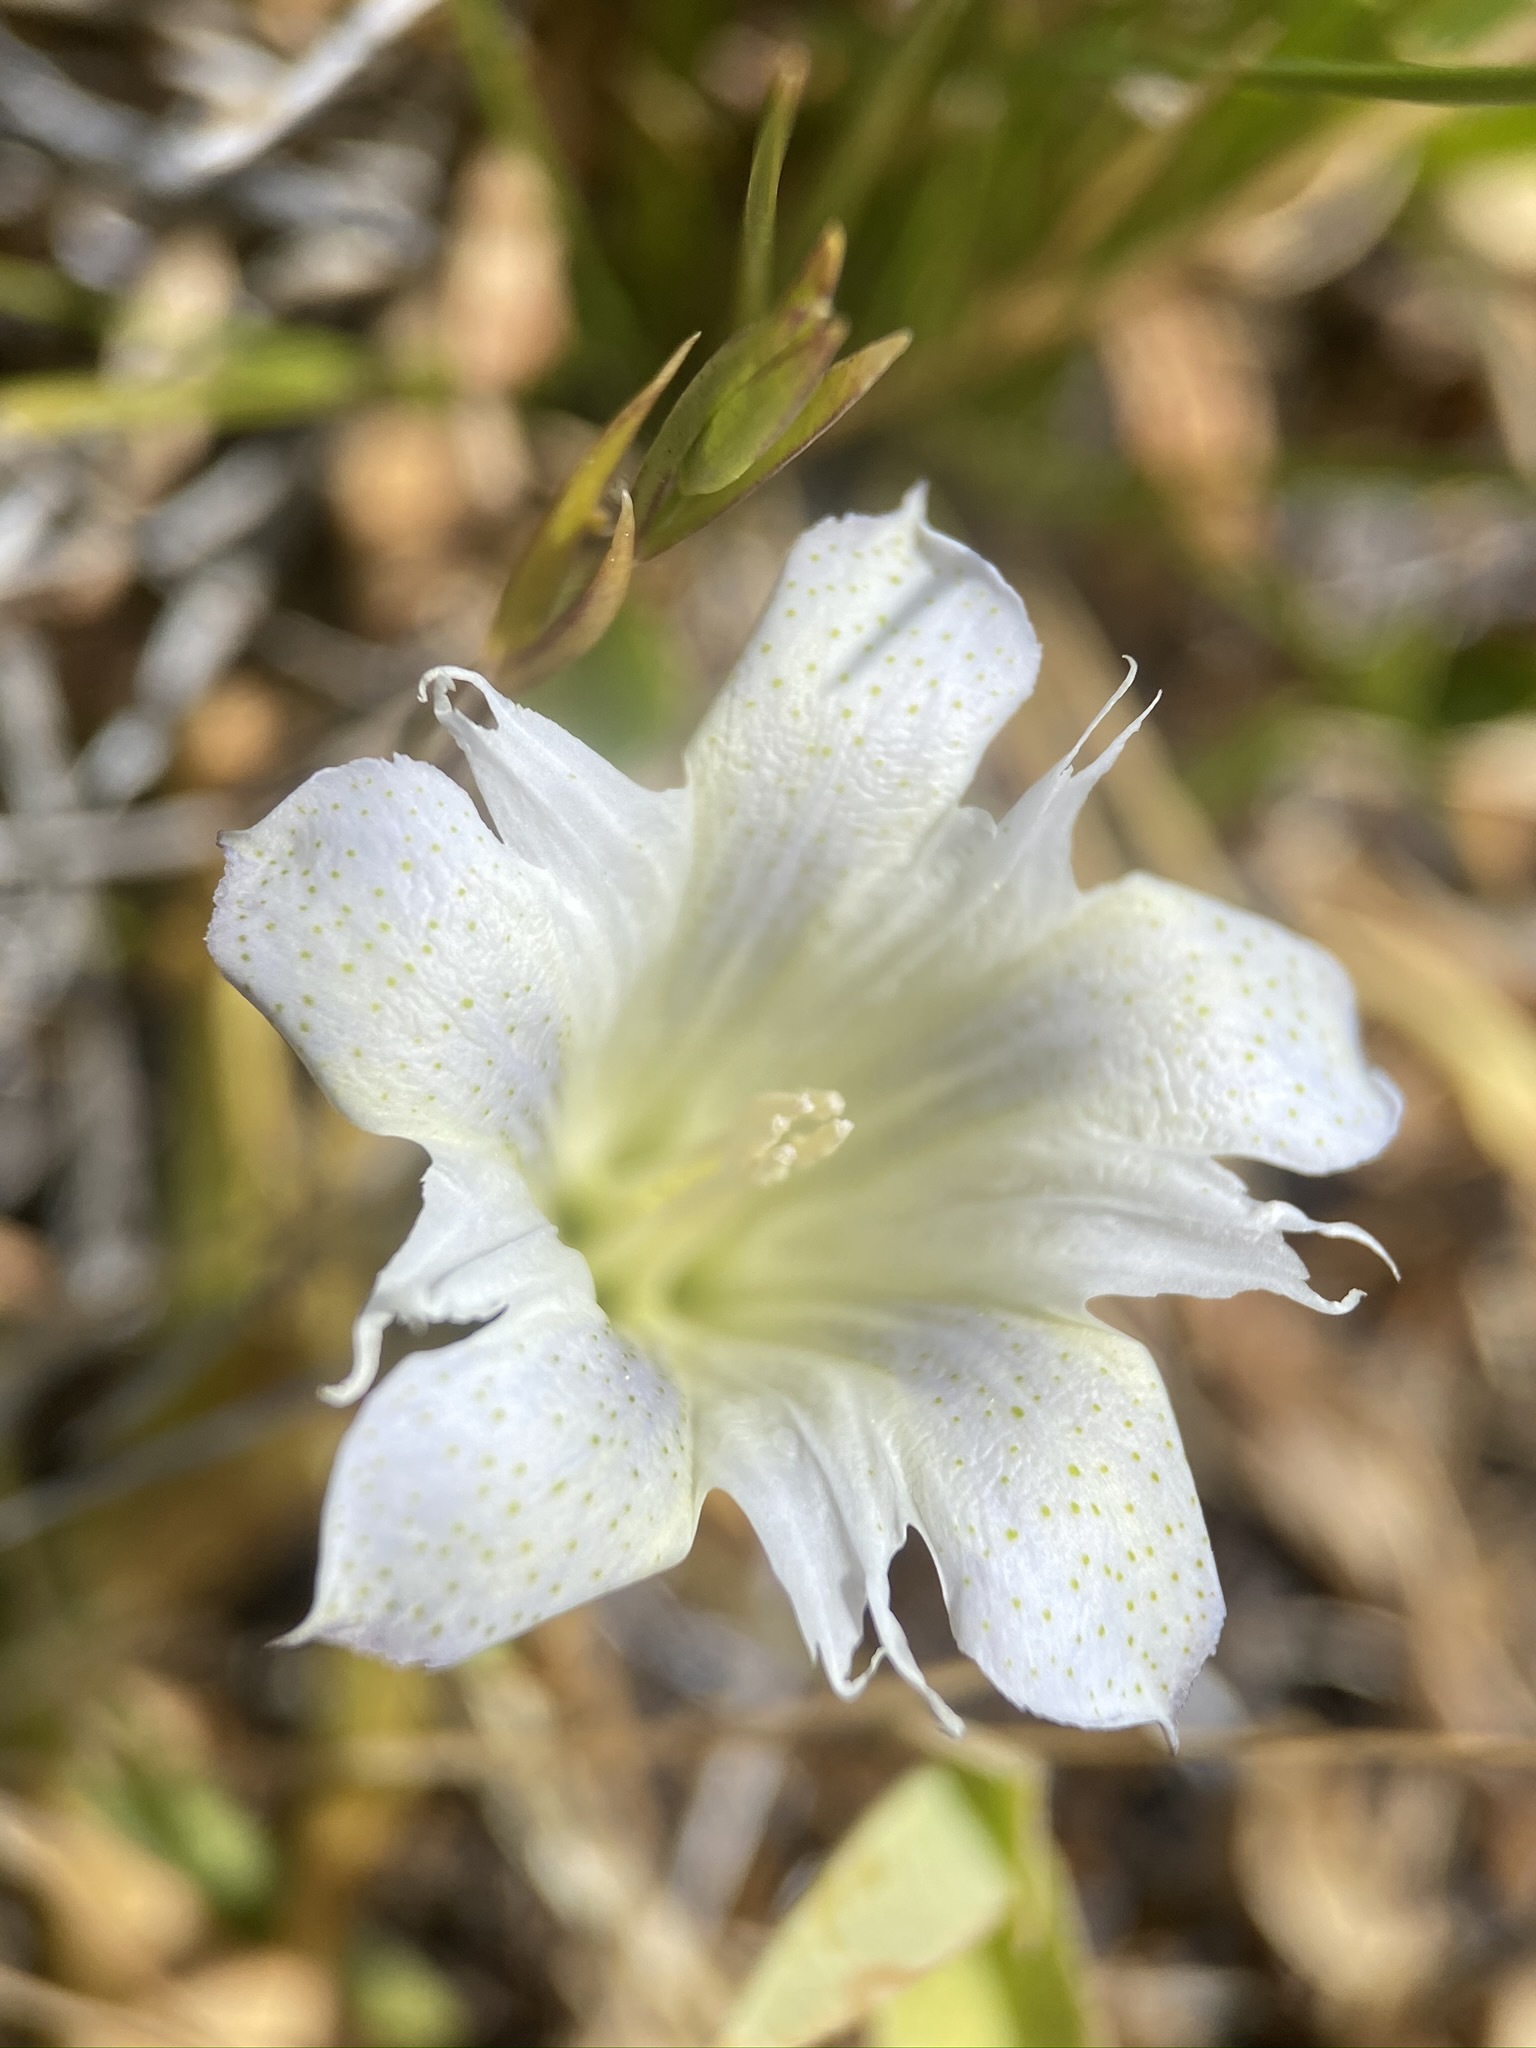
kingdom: Plantae
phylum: Tracheophyta
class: Magnoliopsida
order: Gentianales
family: Gentianaceae
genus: Gentiana
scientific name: Gentiana newberryi
